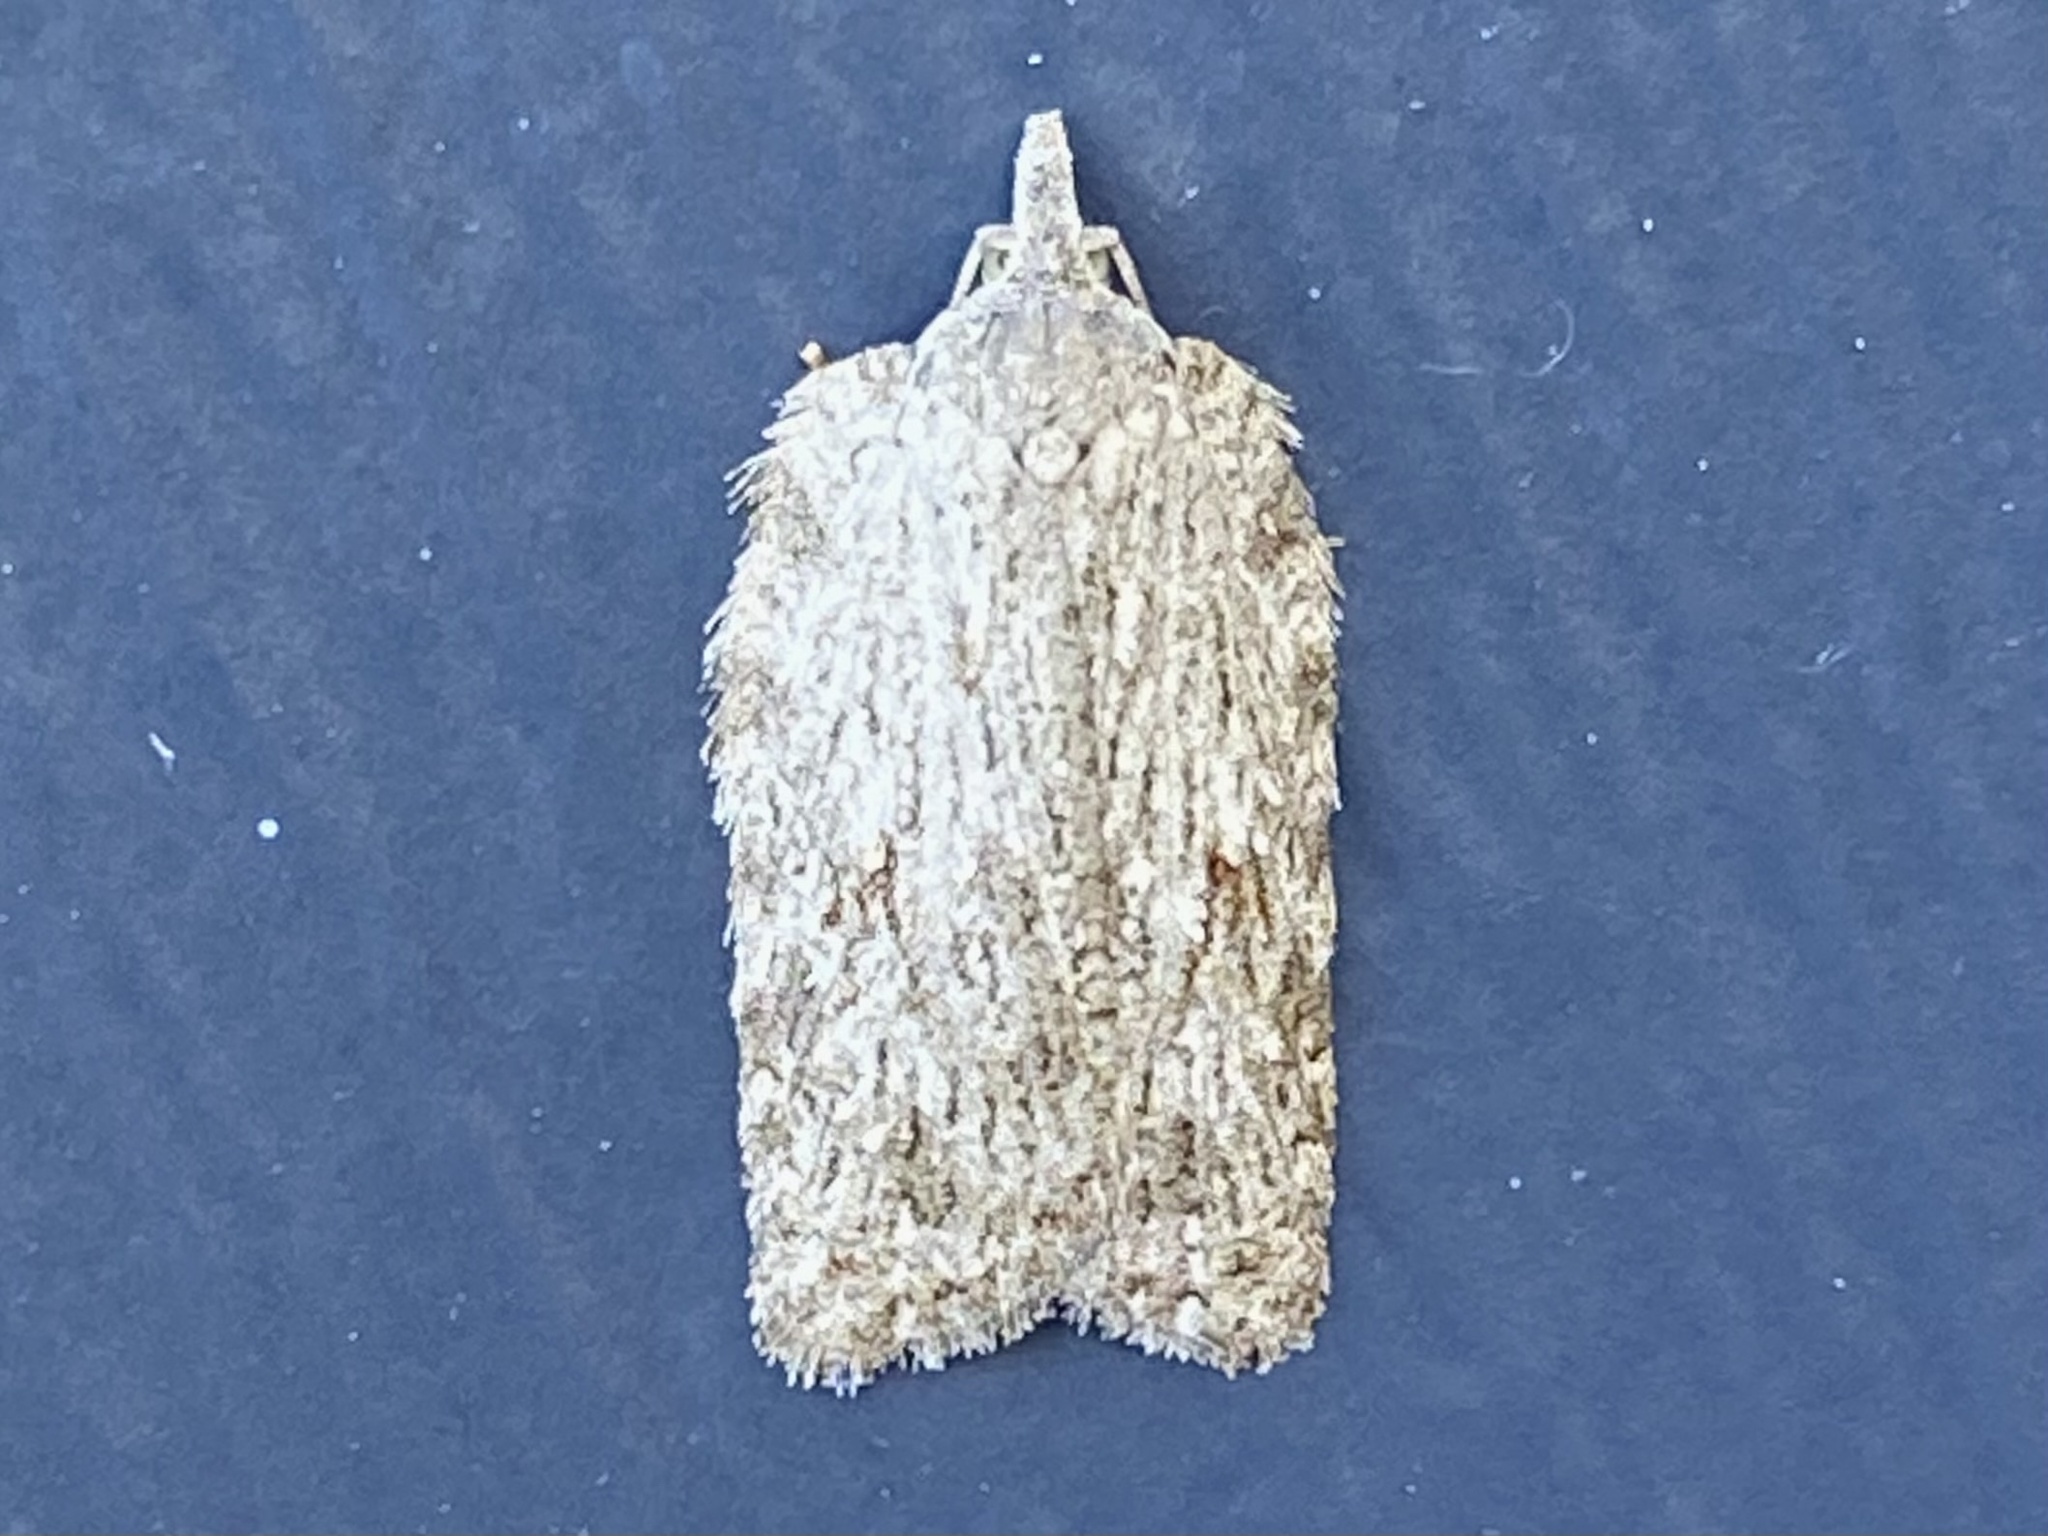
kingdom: Animalia
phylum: Arthropoda
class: Insecta
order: Lepidoptera
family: Tortricidae
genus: Acleris
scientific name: Acleris maximana
